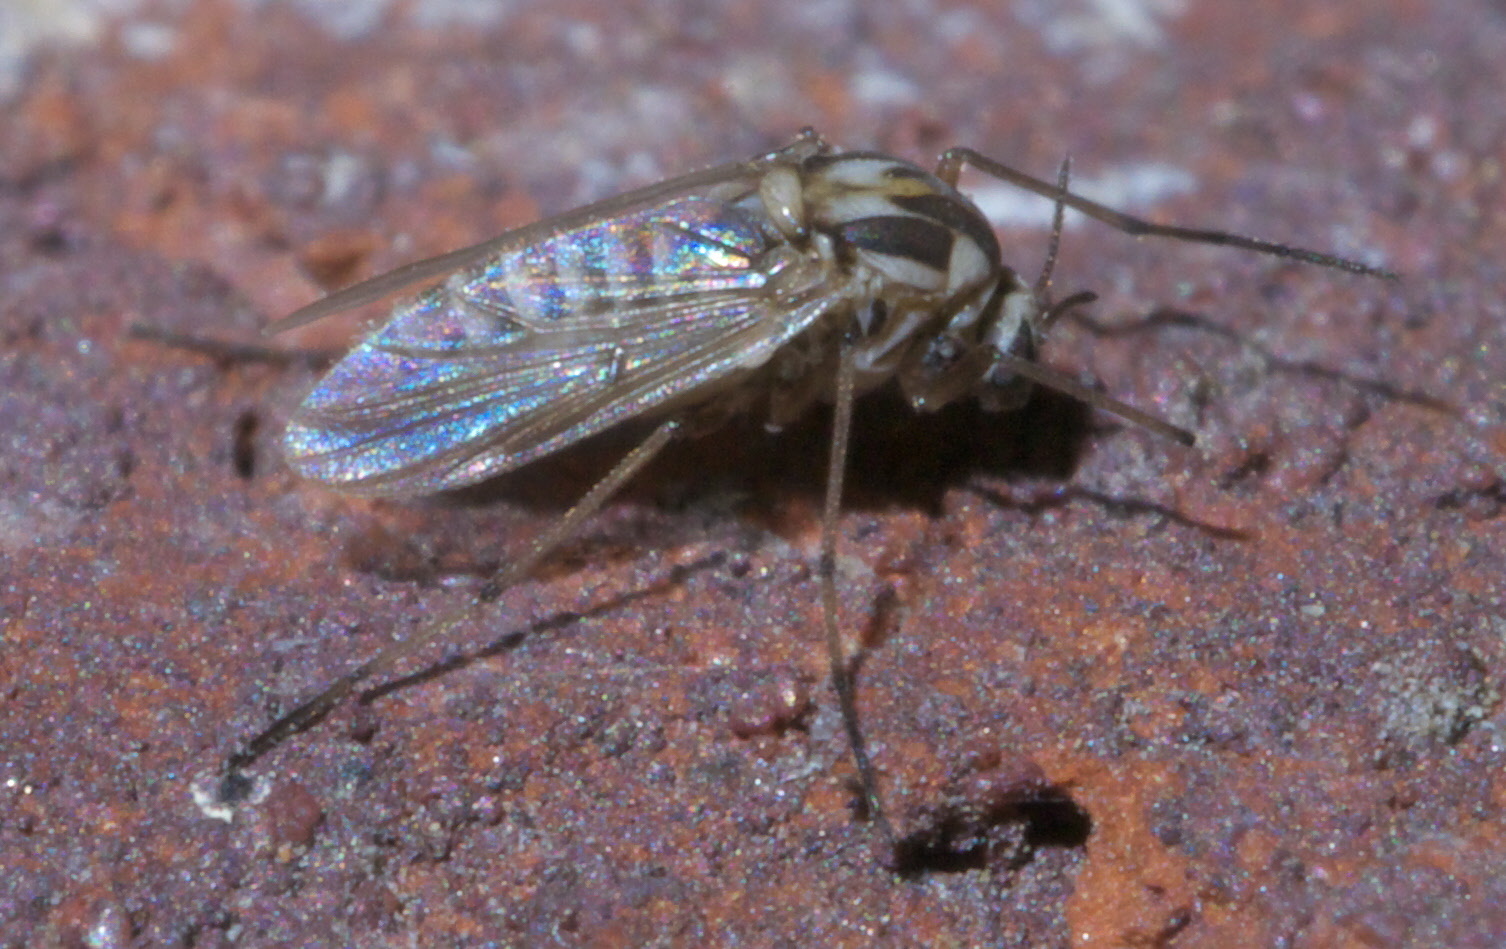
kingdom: Animalia
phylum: Arthropoda
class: Insecta
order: Diptera
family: Chironomidae
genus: Procladius
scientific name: Procladius bellus
